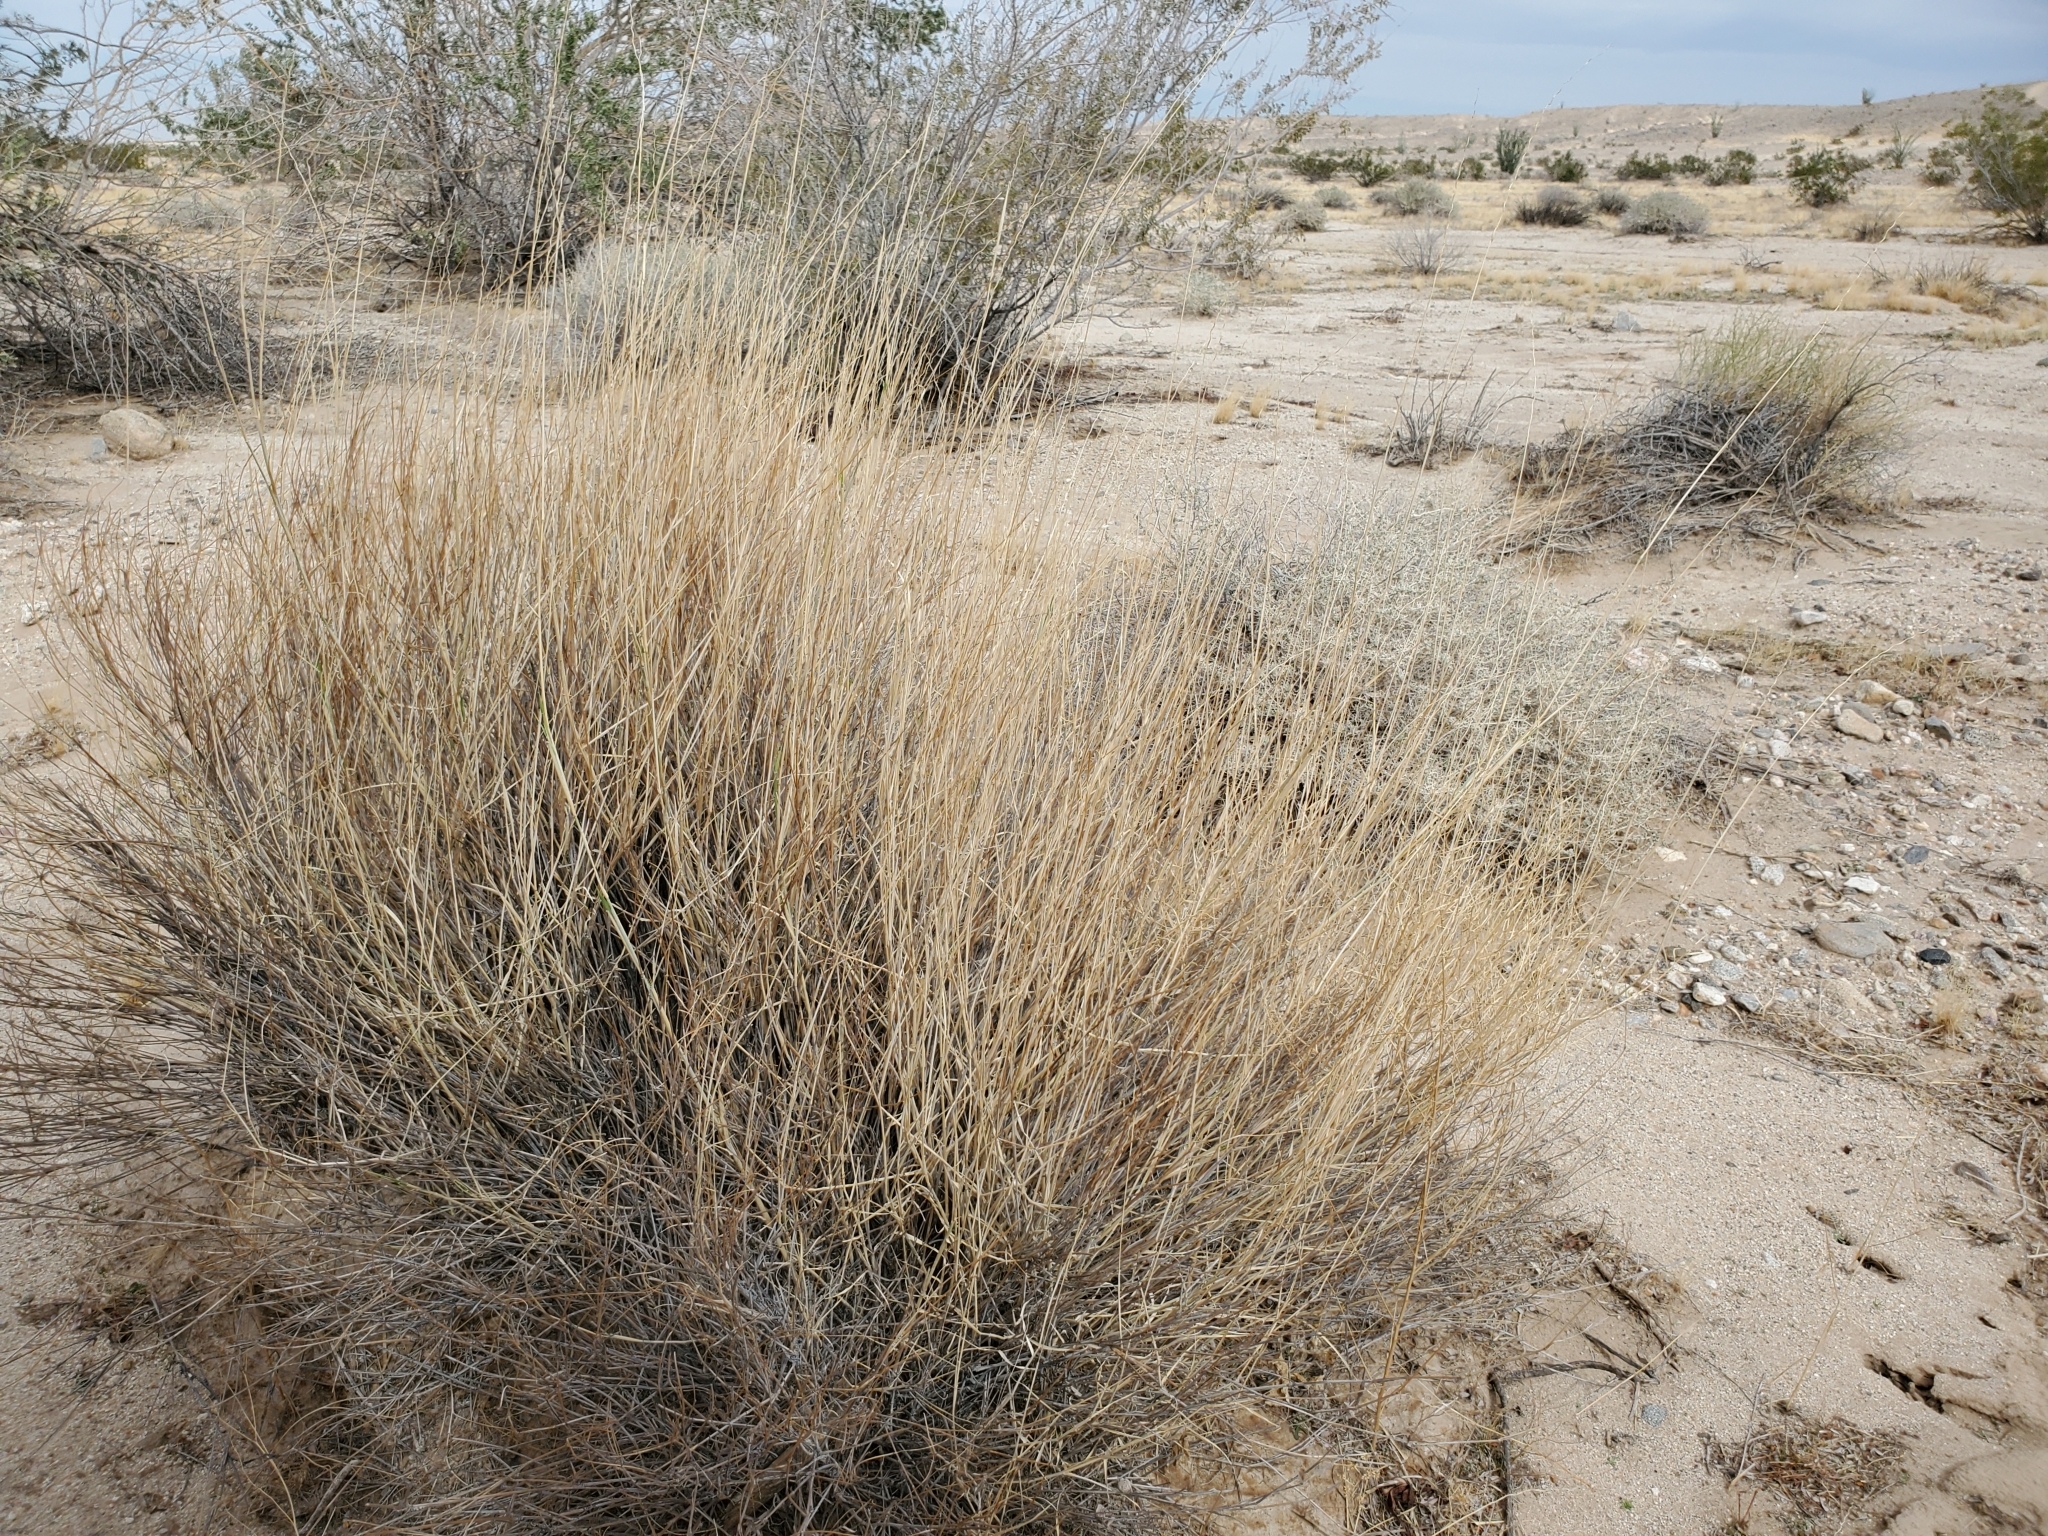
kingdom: Plantae
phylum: Tracheophyta
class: Liliopsida
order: Poales
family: Poaceae
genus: Hilaria
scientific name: Hilaria rigida
